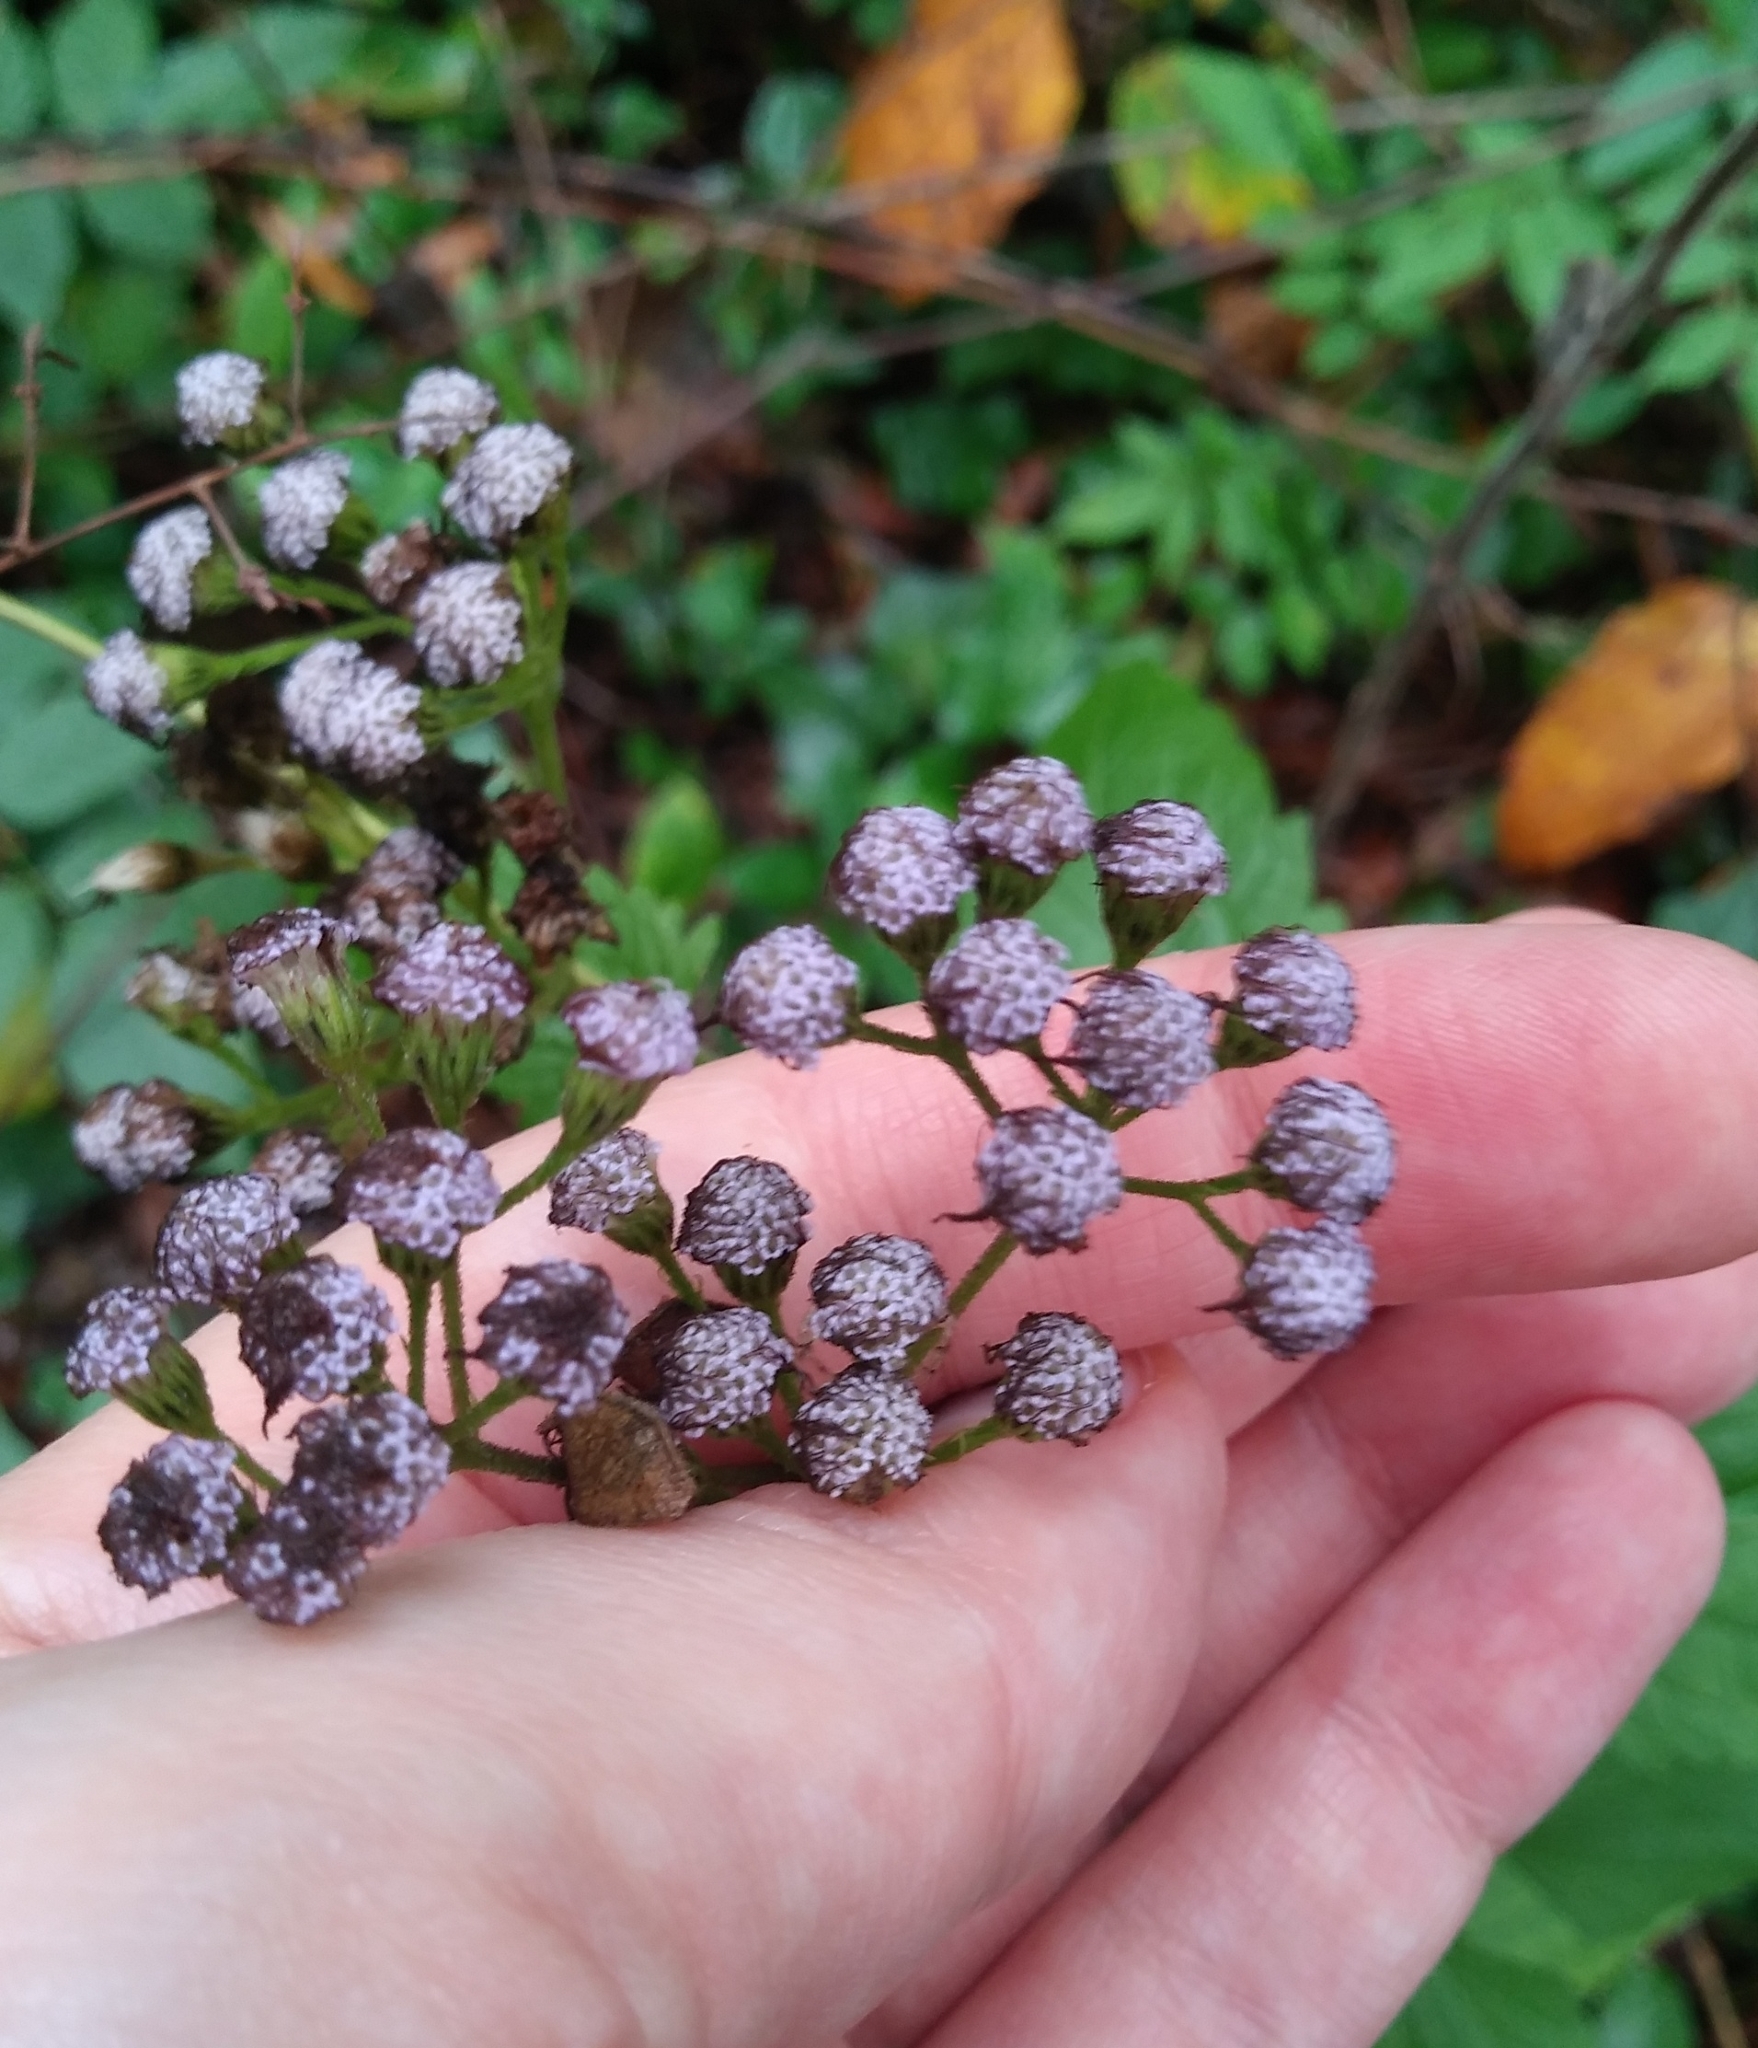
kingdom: Plantae
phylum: Tracheophyta
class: Magnoliopsida
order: Asterales
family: Asteraceae
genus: Conoclinium
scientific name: Conoclinium coelestinum
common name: Blue mistflower
